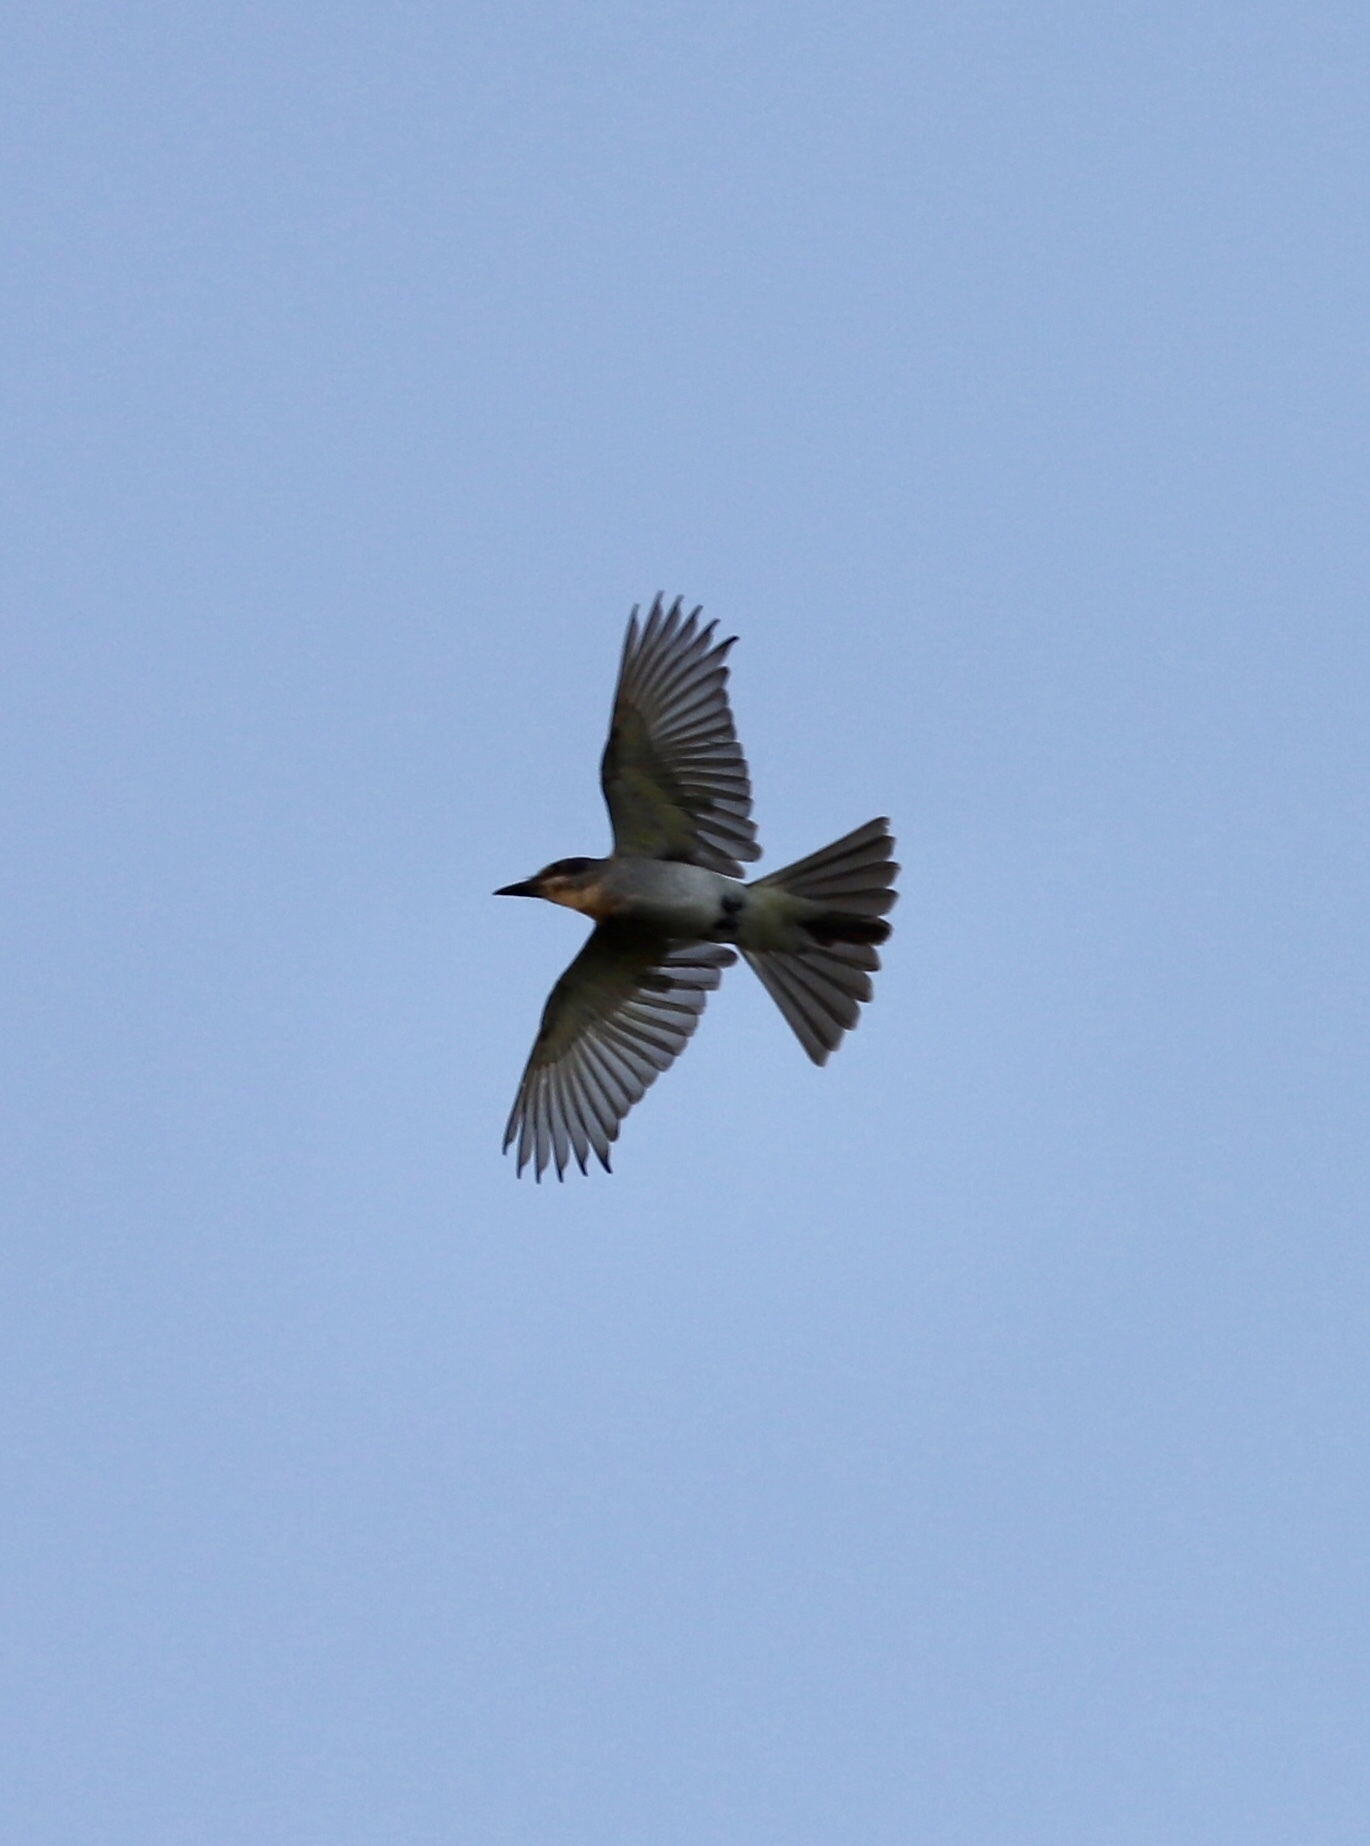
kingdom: Animalia
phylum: Chordata
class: Aves
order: Passeriformes
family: Tyrannidae
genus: Tyrannus
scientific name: Tyrannus dominicensis
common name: Gray kingbird
